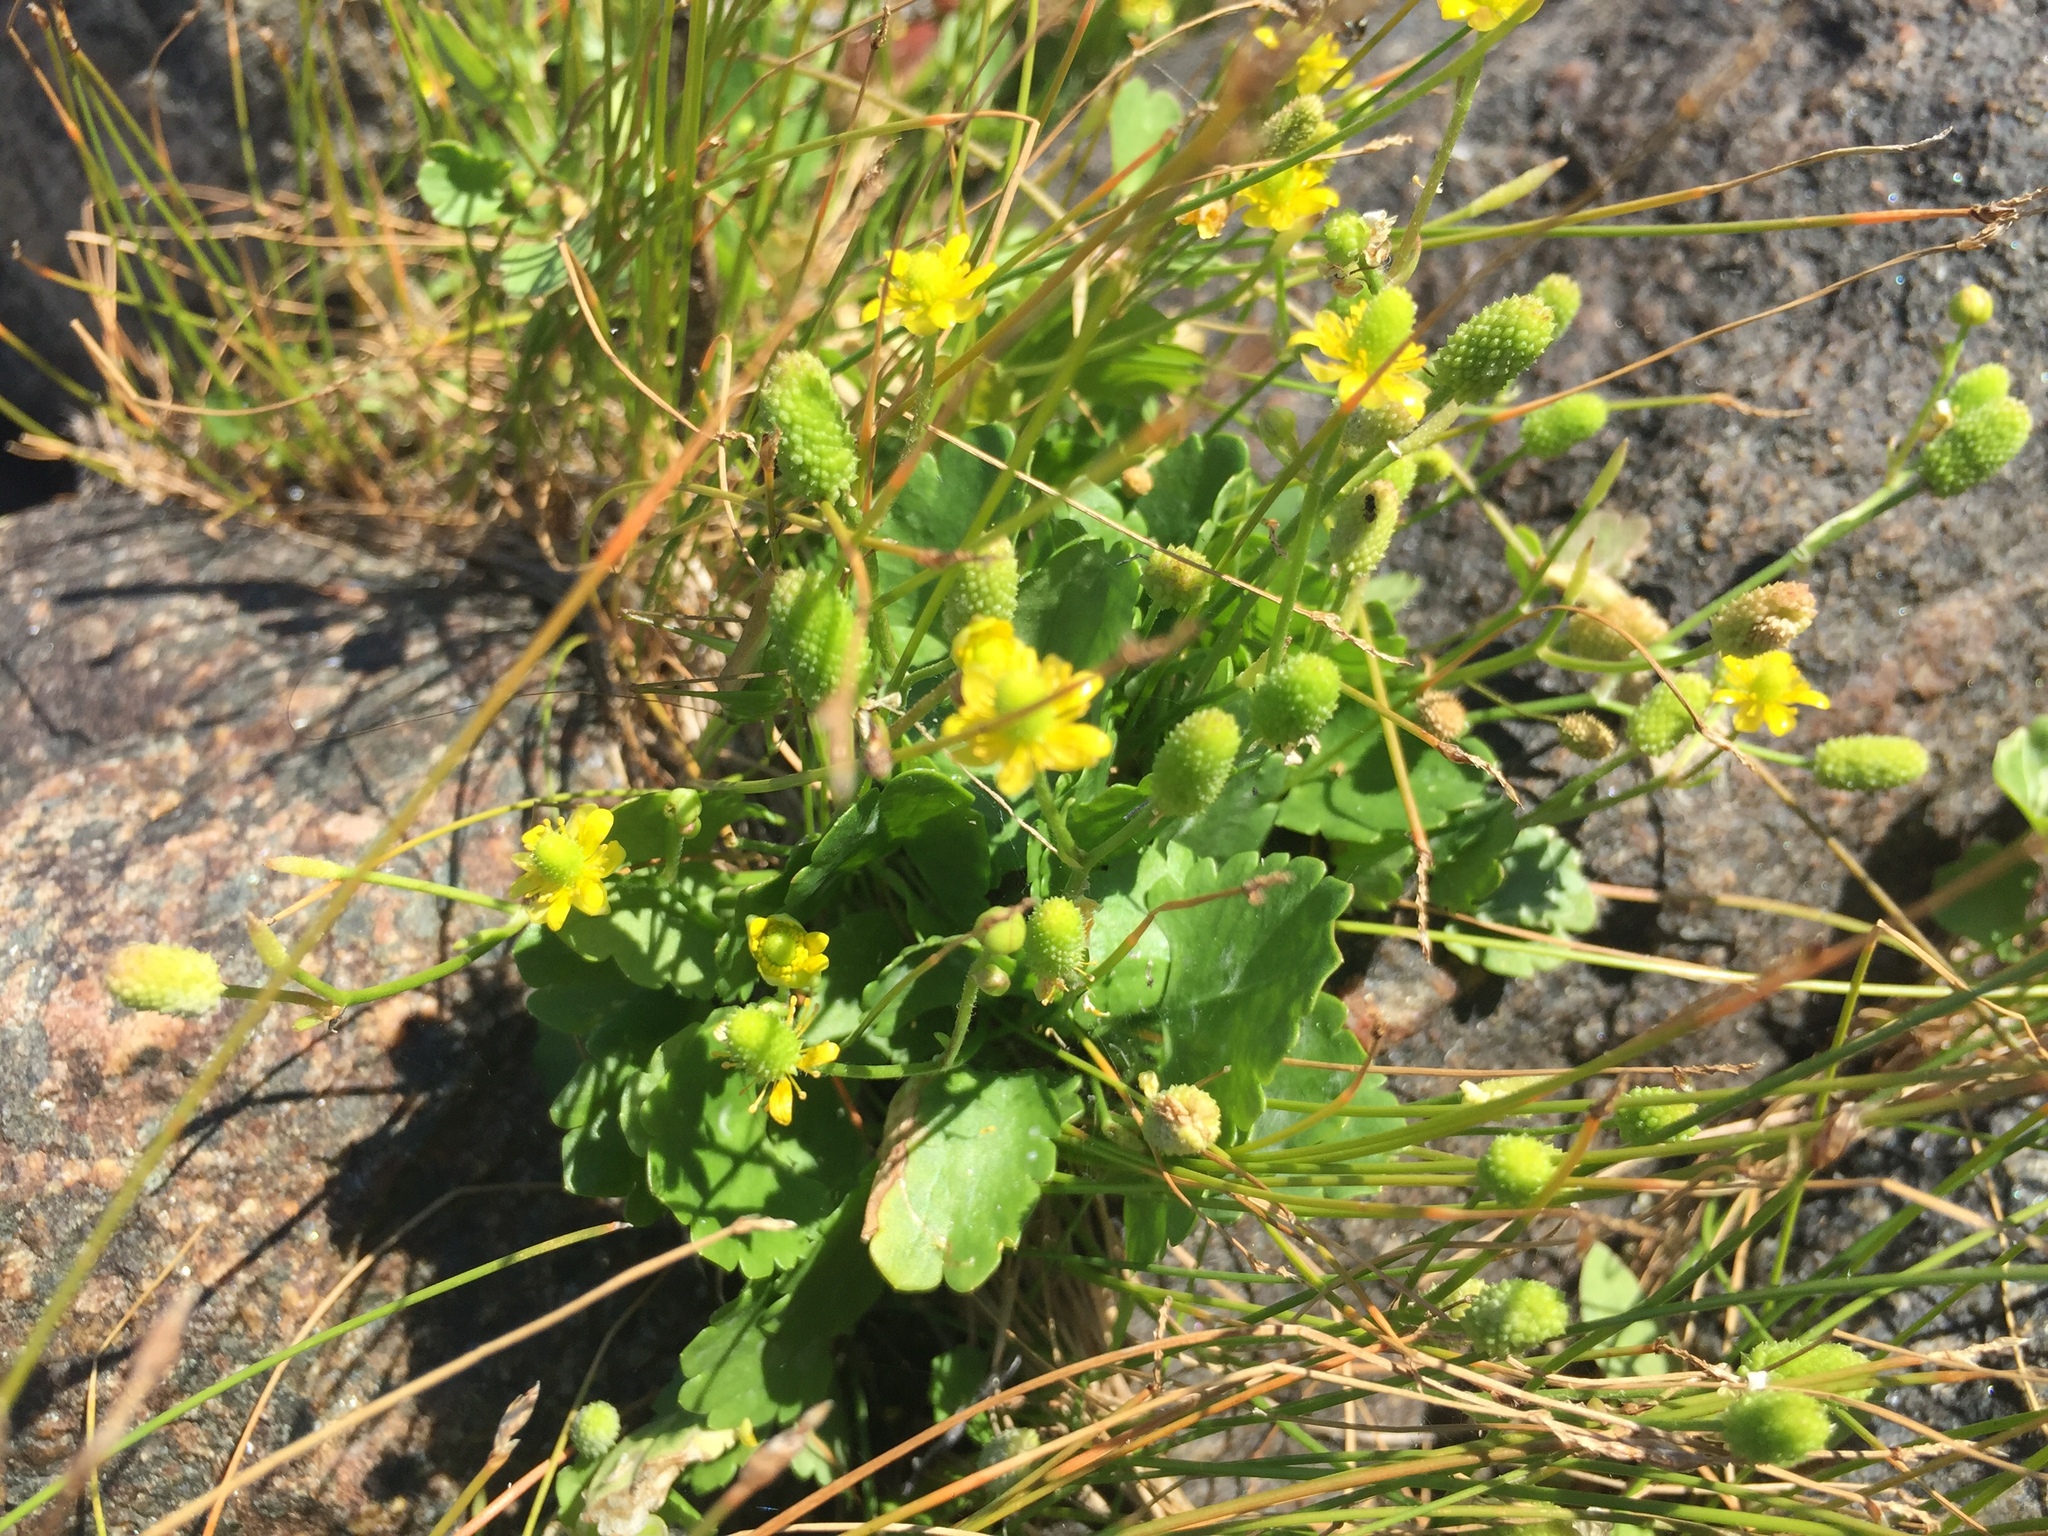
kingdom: Plantae
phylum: Tracheophyta
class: Magnoliopsida
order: Ranunculales
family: Ranunculaceae
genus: Halerpestes
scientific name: Halerpestes cymbalaria
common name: Seaside crowfoot
